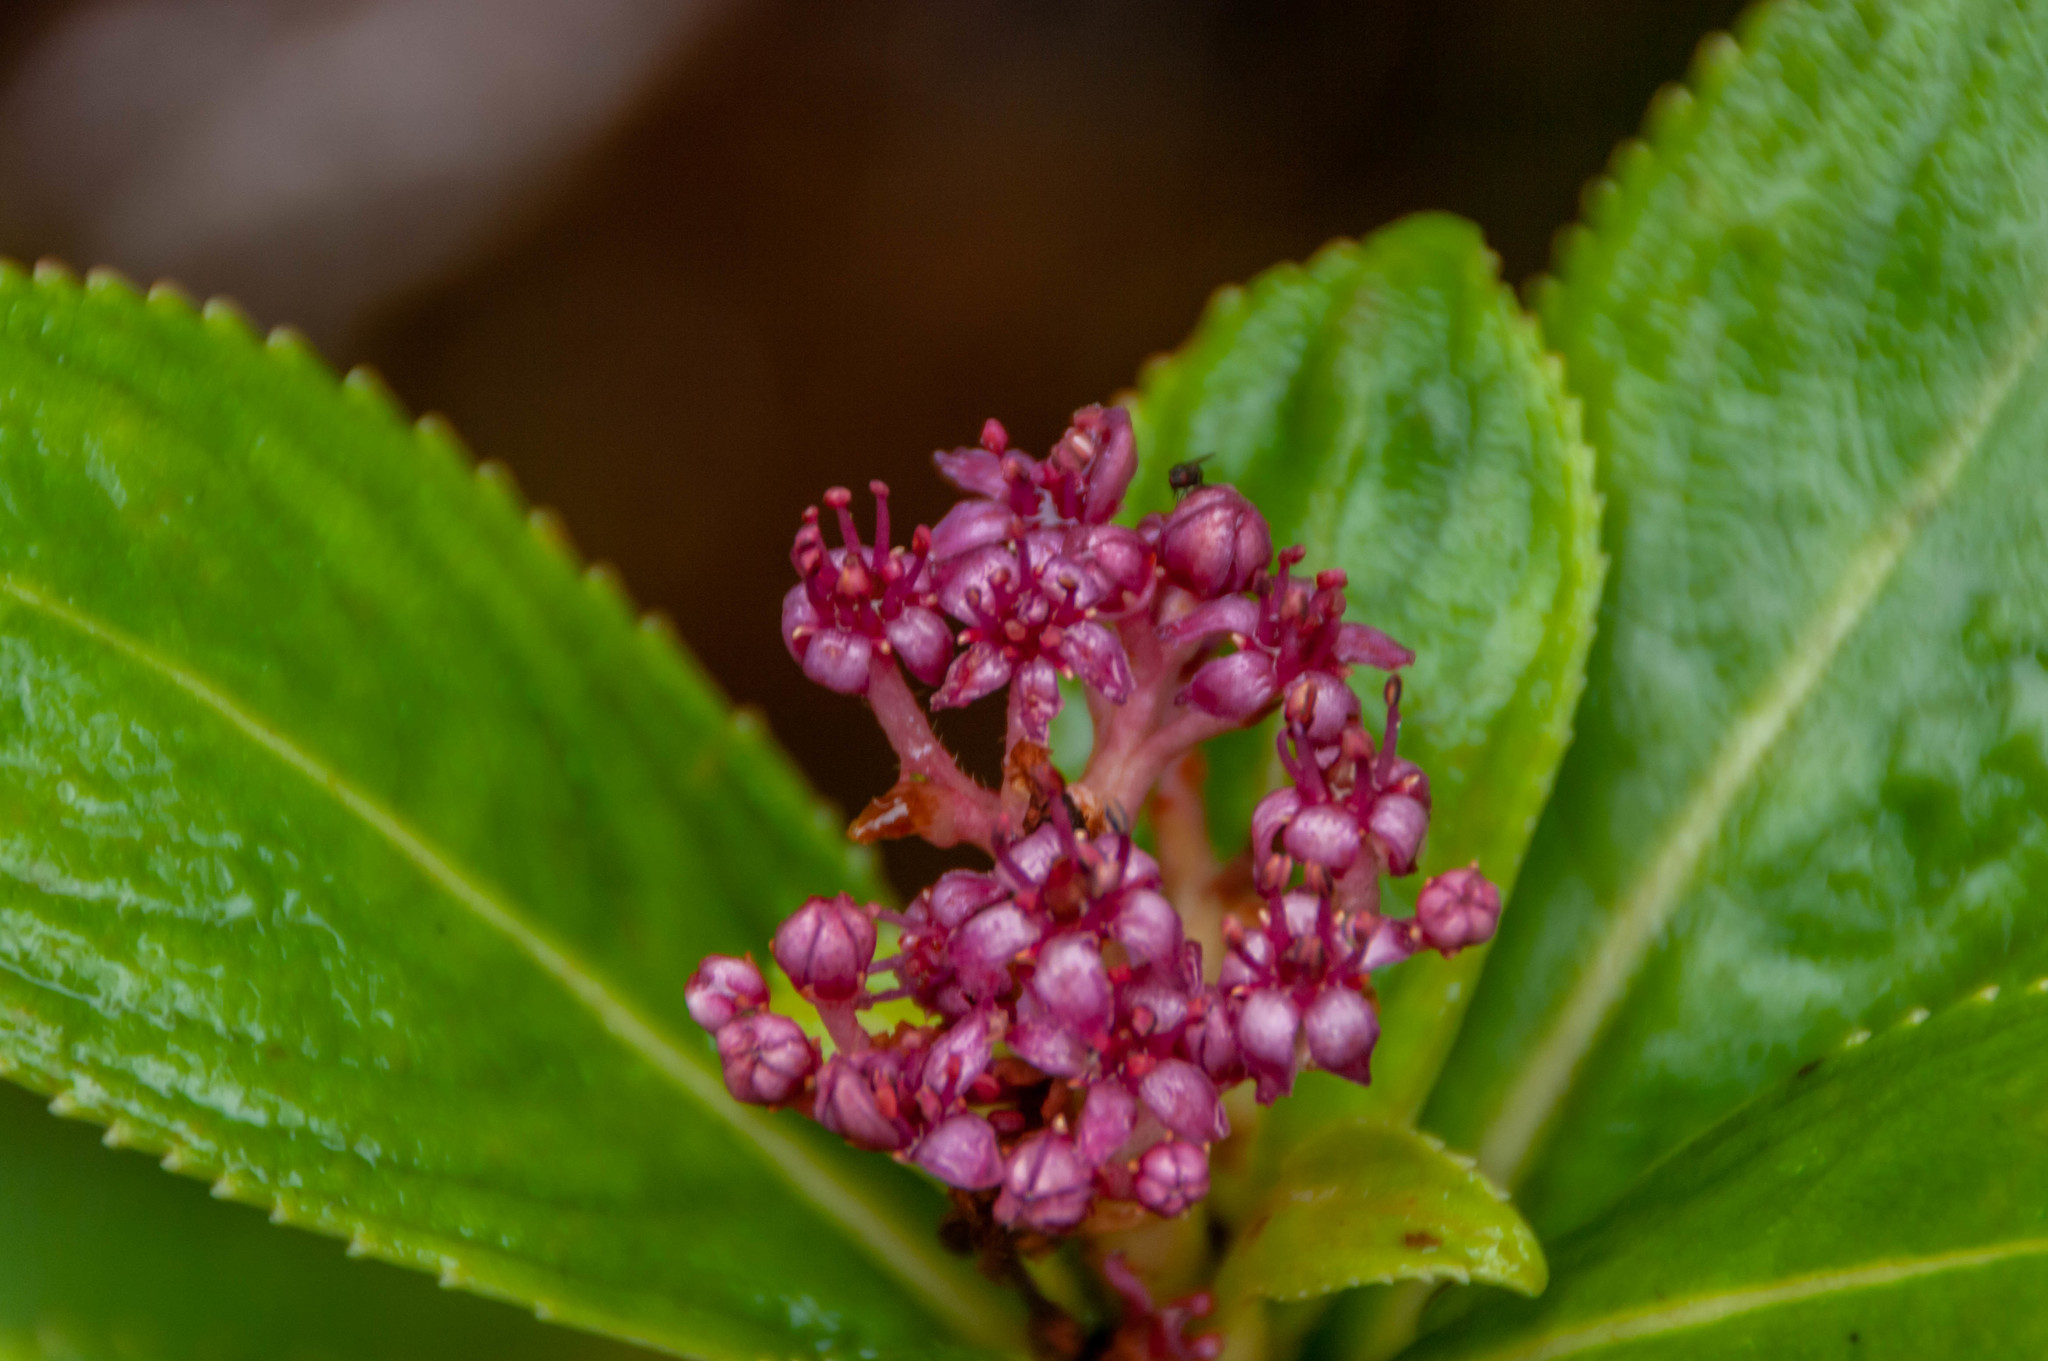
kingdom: Plantae
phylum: Tracheophyta
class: Magnoliopsida
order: Cornales
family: Hydrangeaceae
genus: Hydrangea
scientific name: Hydrangea arguta
